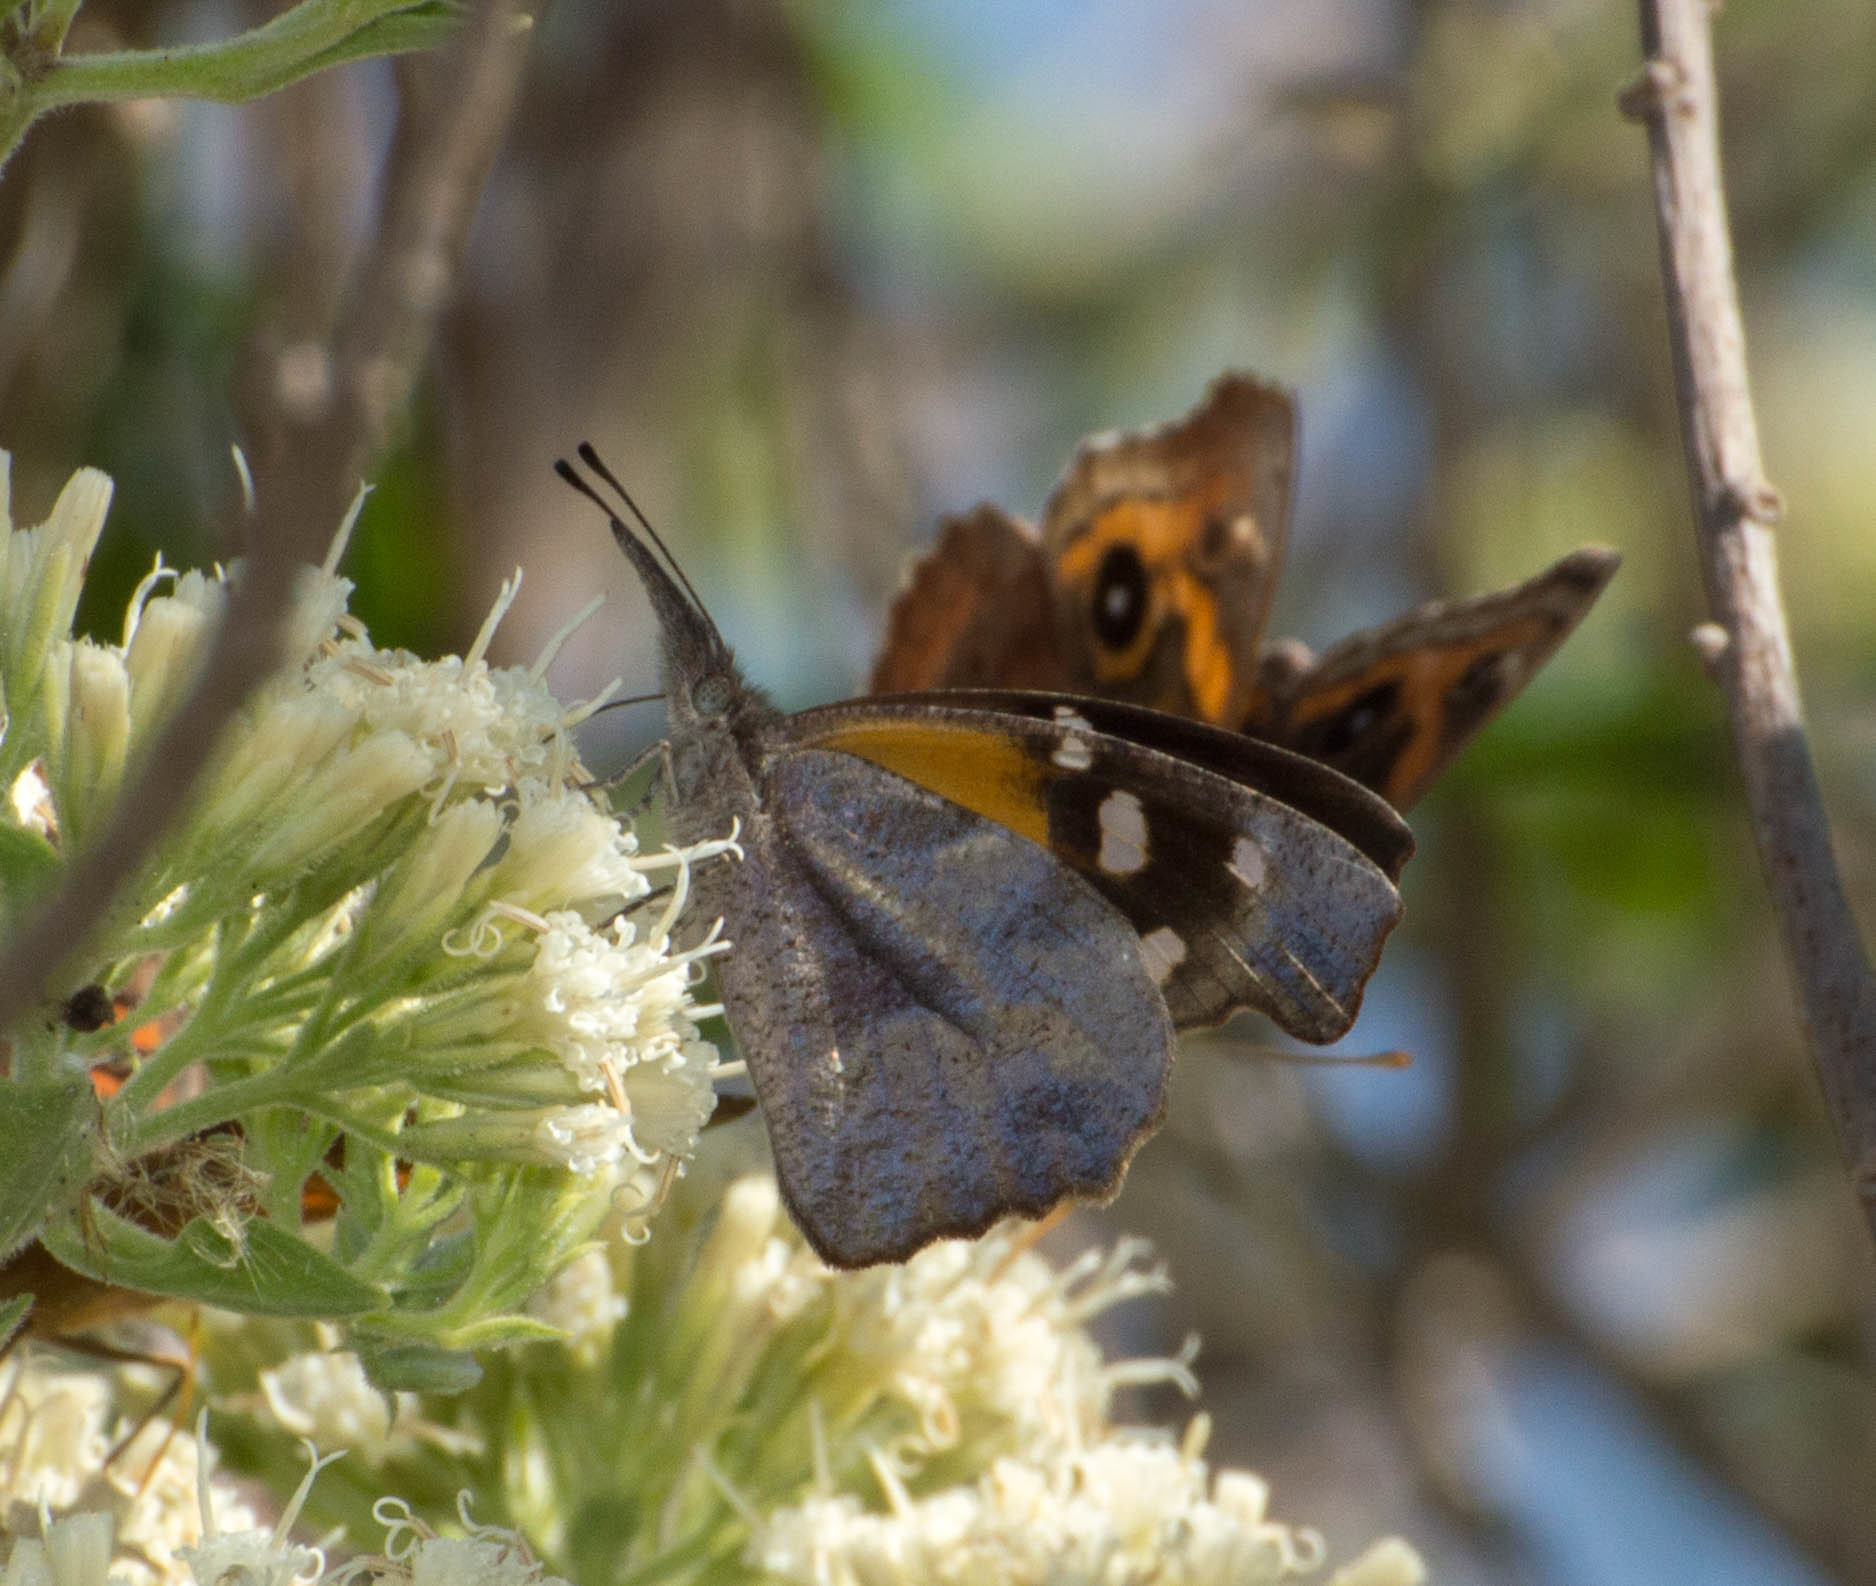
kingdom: Animalia
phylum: Arthropoda
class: Insecta
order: Lepidoptera
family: Nymphalidae
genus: Libytheana
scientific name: Libytheana carinenta
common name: American snout
